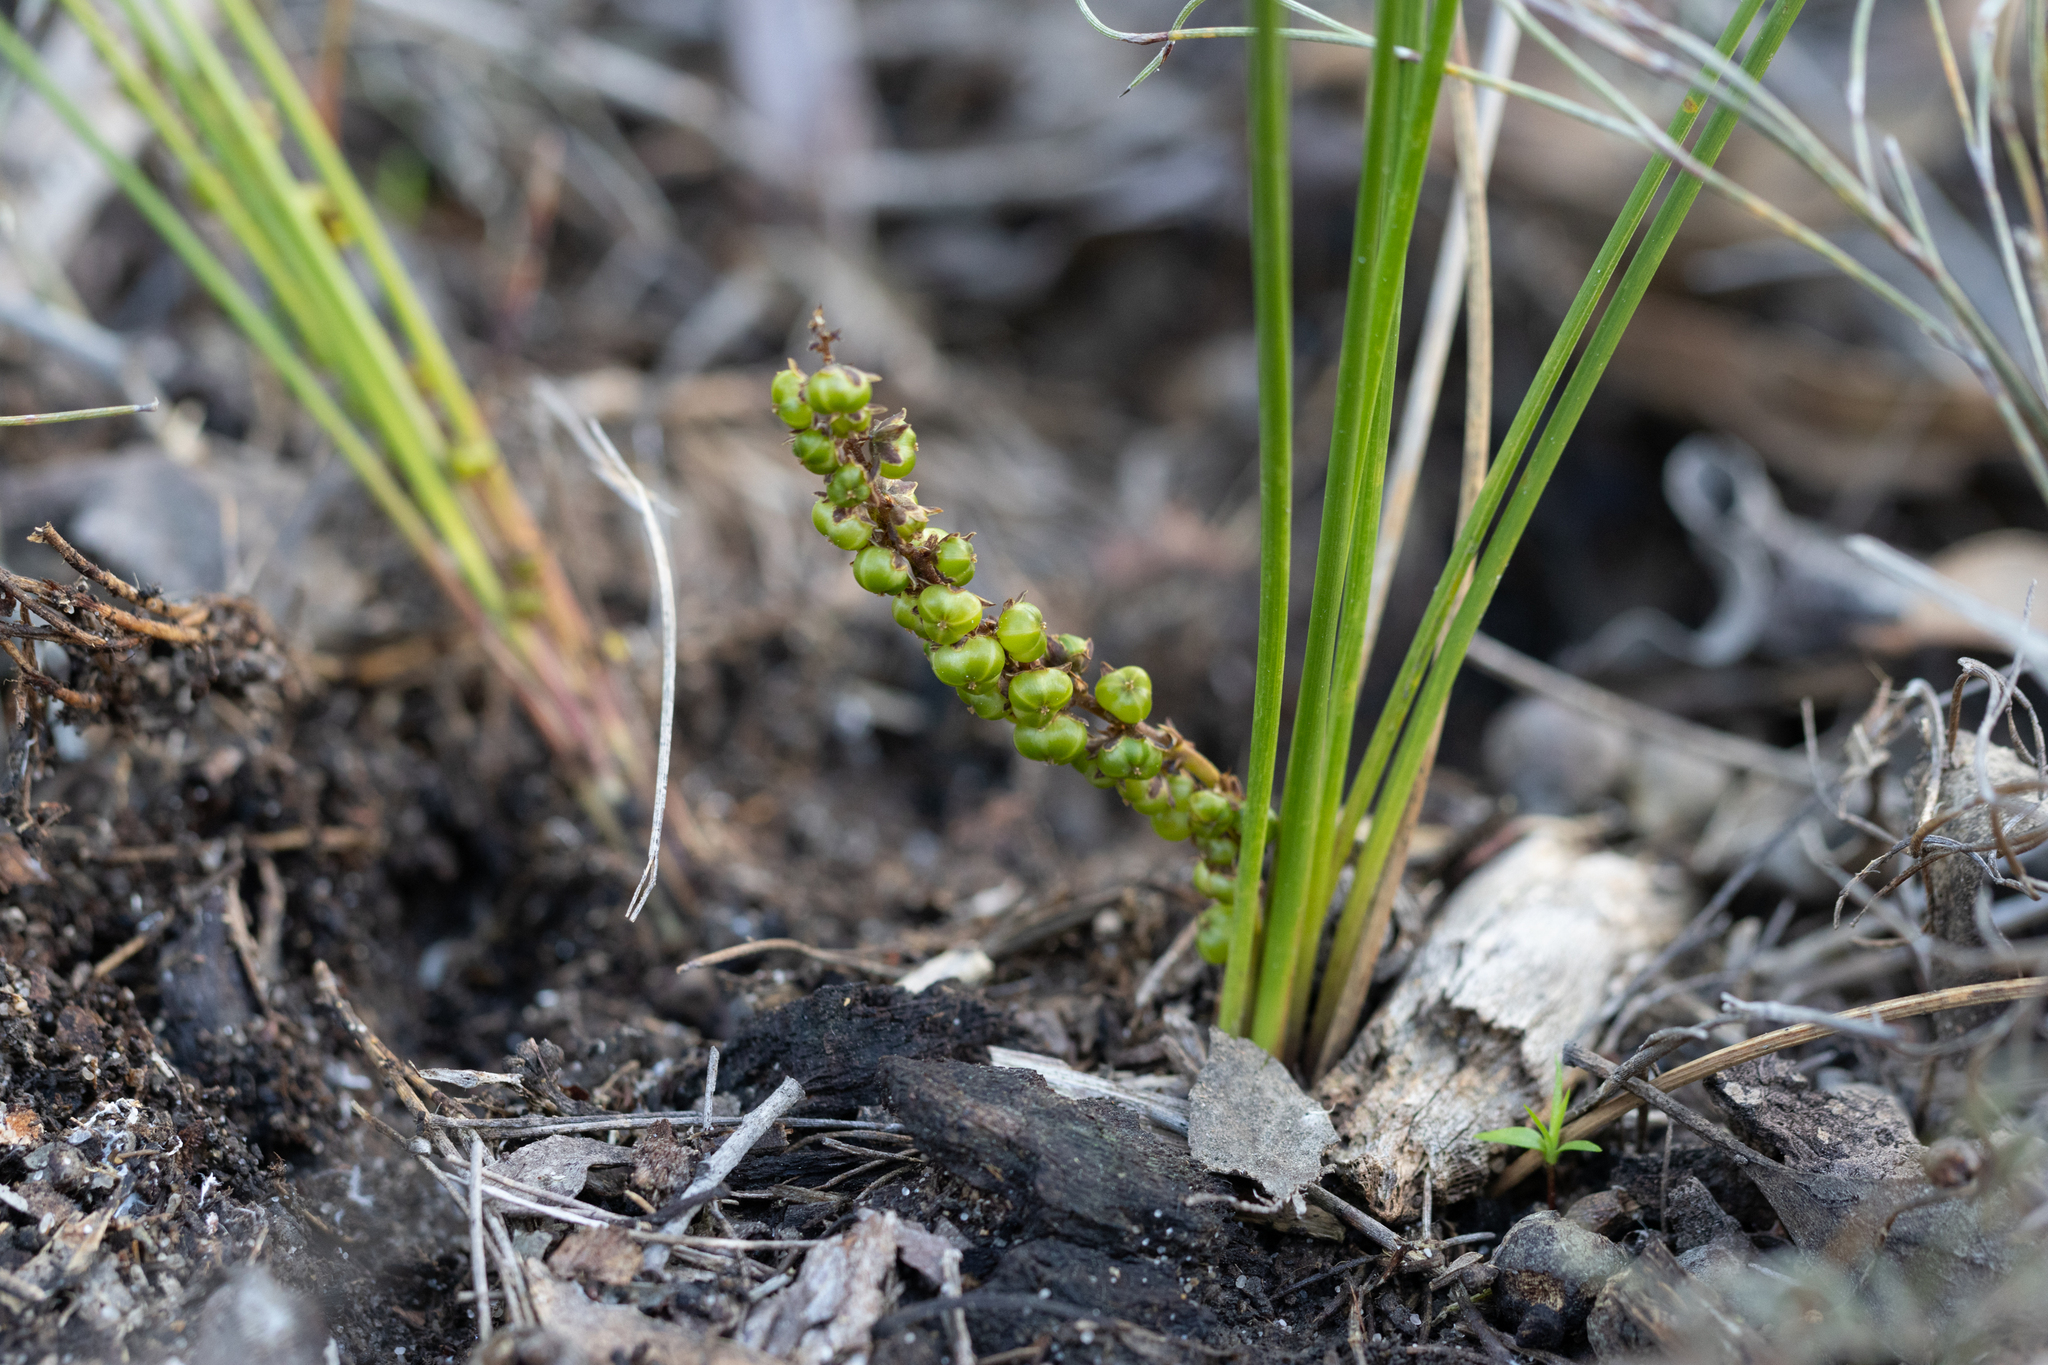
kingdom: Plantae
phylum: Tracheophyta
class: Liliopsida
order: Asparagales
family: Asparagaceae
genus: Lomandra
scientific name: Lomandra micrantha
